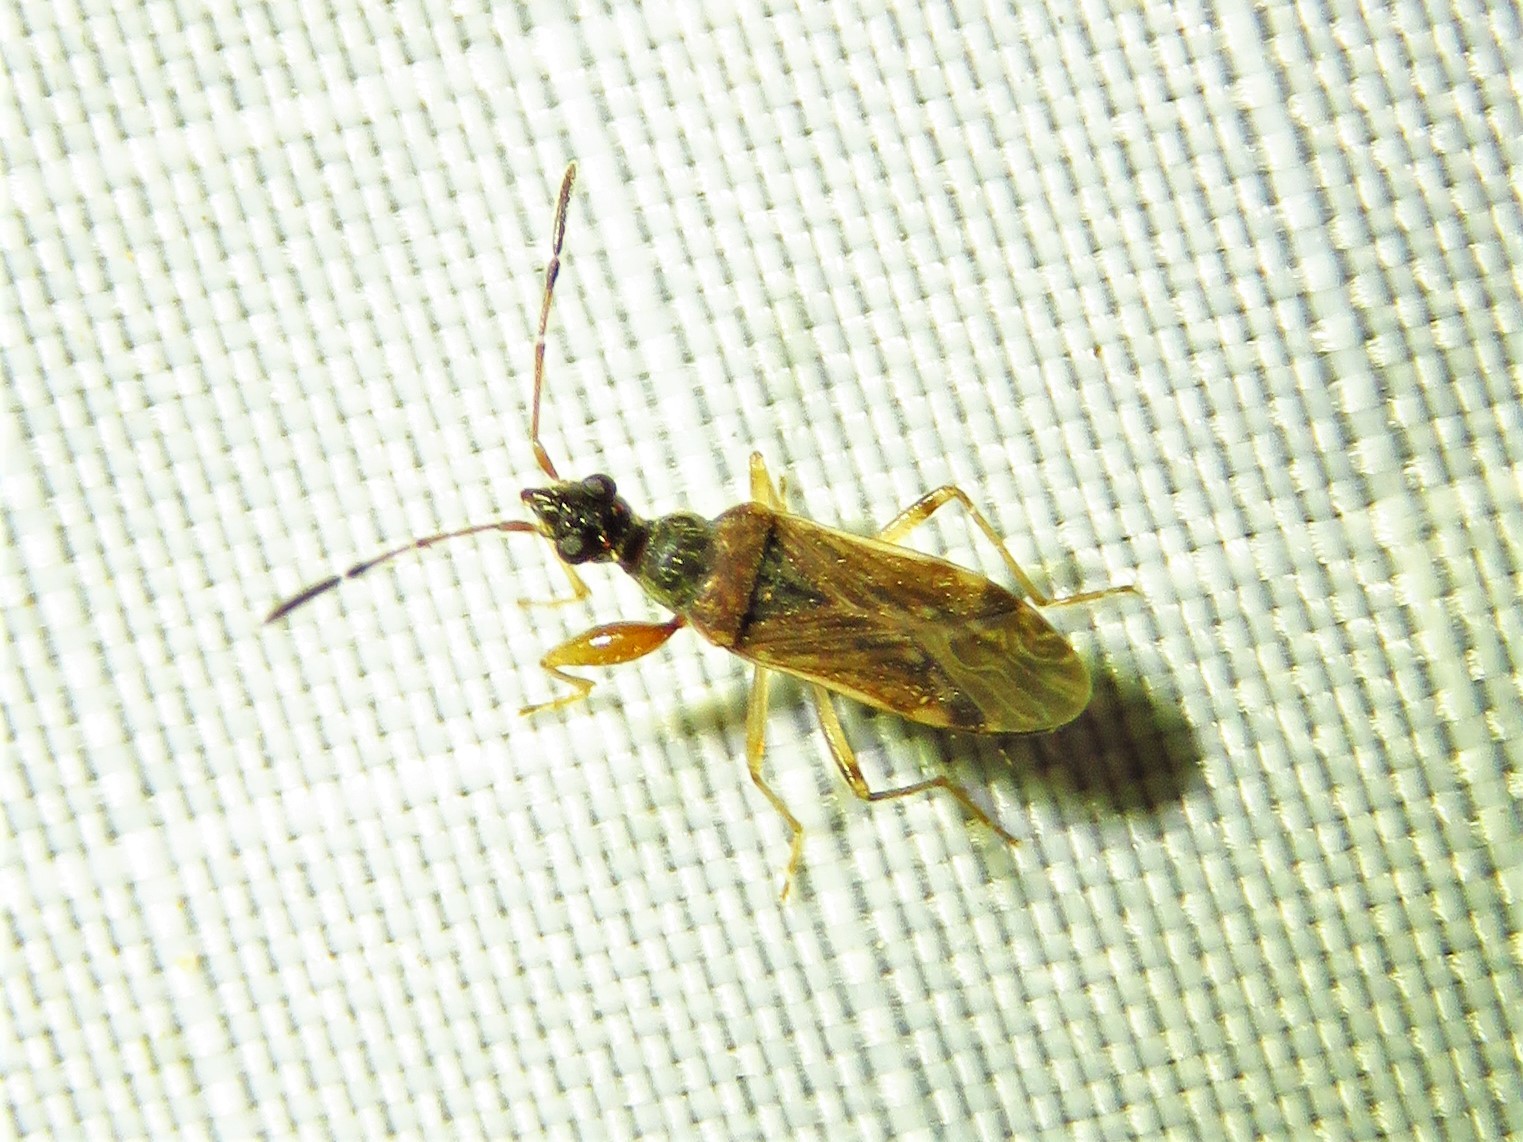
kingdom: Animalia
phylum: Arthropoda
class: Insecta
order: Hemiptera
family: Rhyparochromidae
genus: Heraeus
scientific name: Heraeus plebejus
